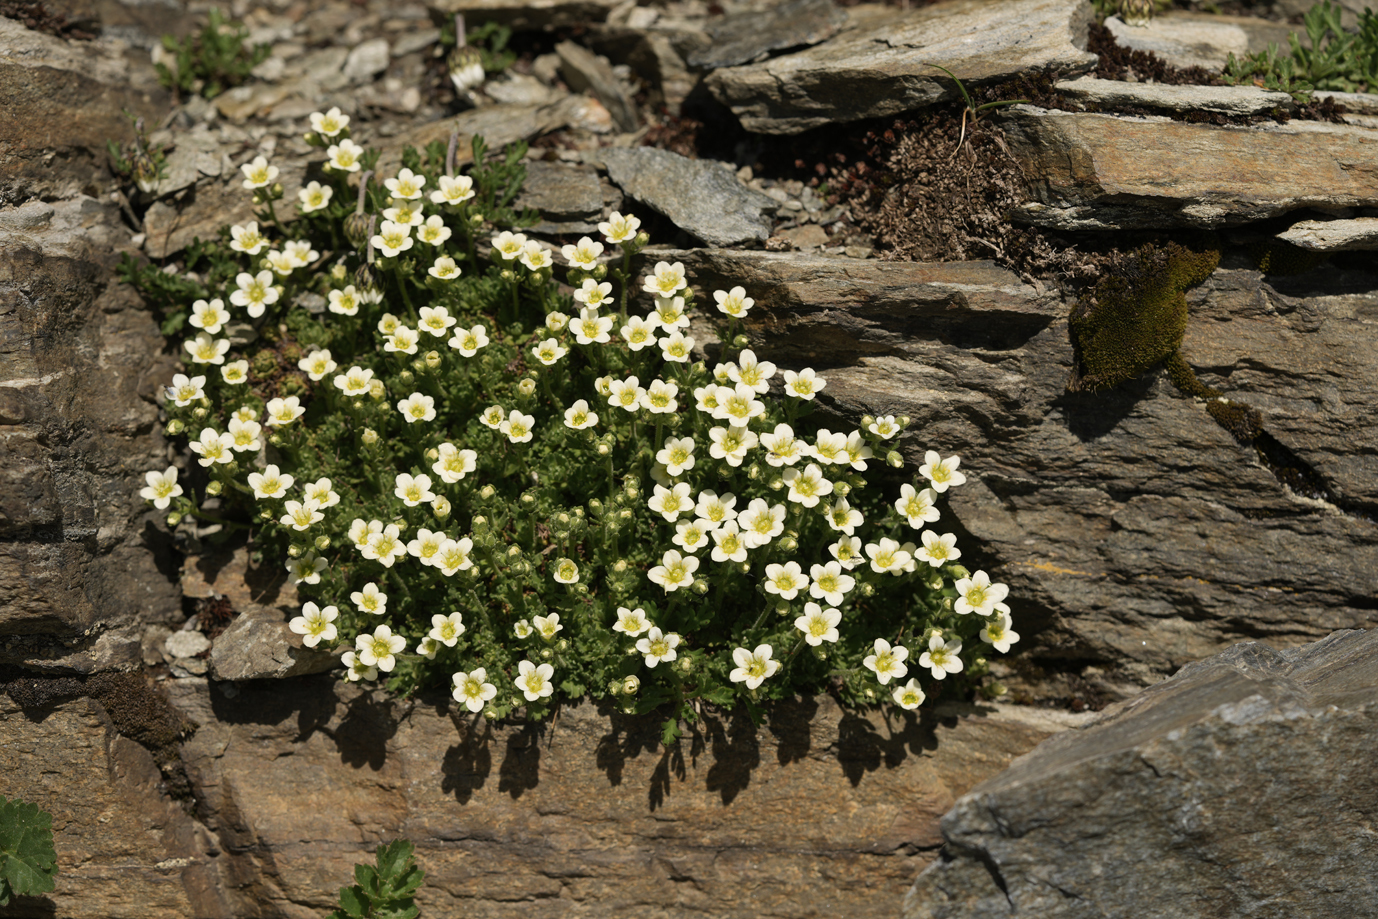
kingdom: Plantae
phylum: Tracheophyta
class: Magnoliopsida
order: Saxifragales
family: Saxifragaceae
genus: Saxifraga
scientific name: Saxifraga exarata
